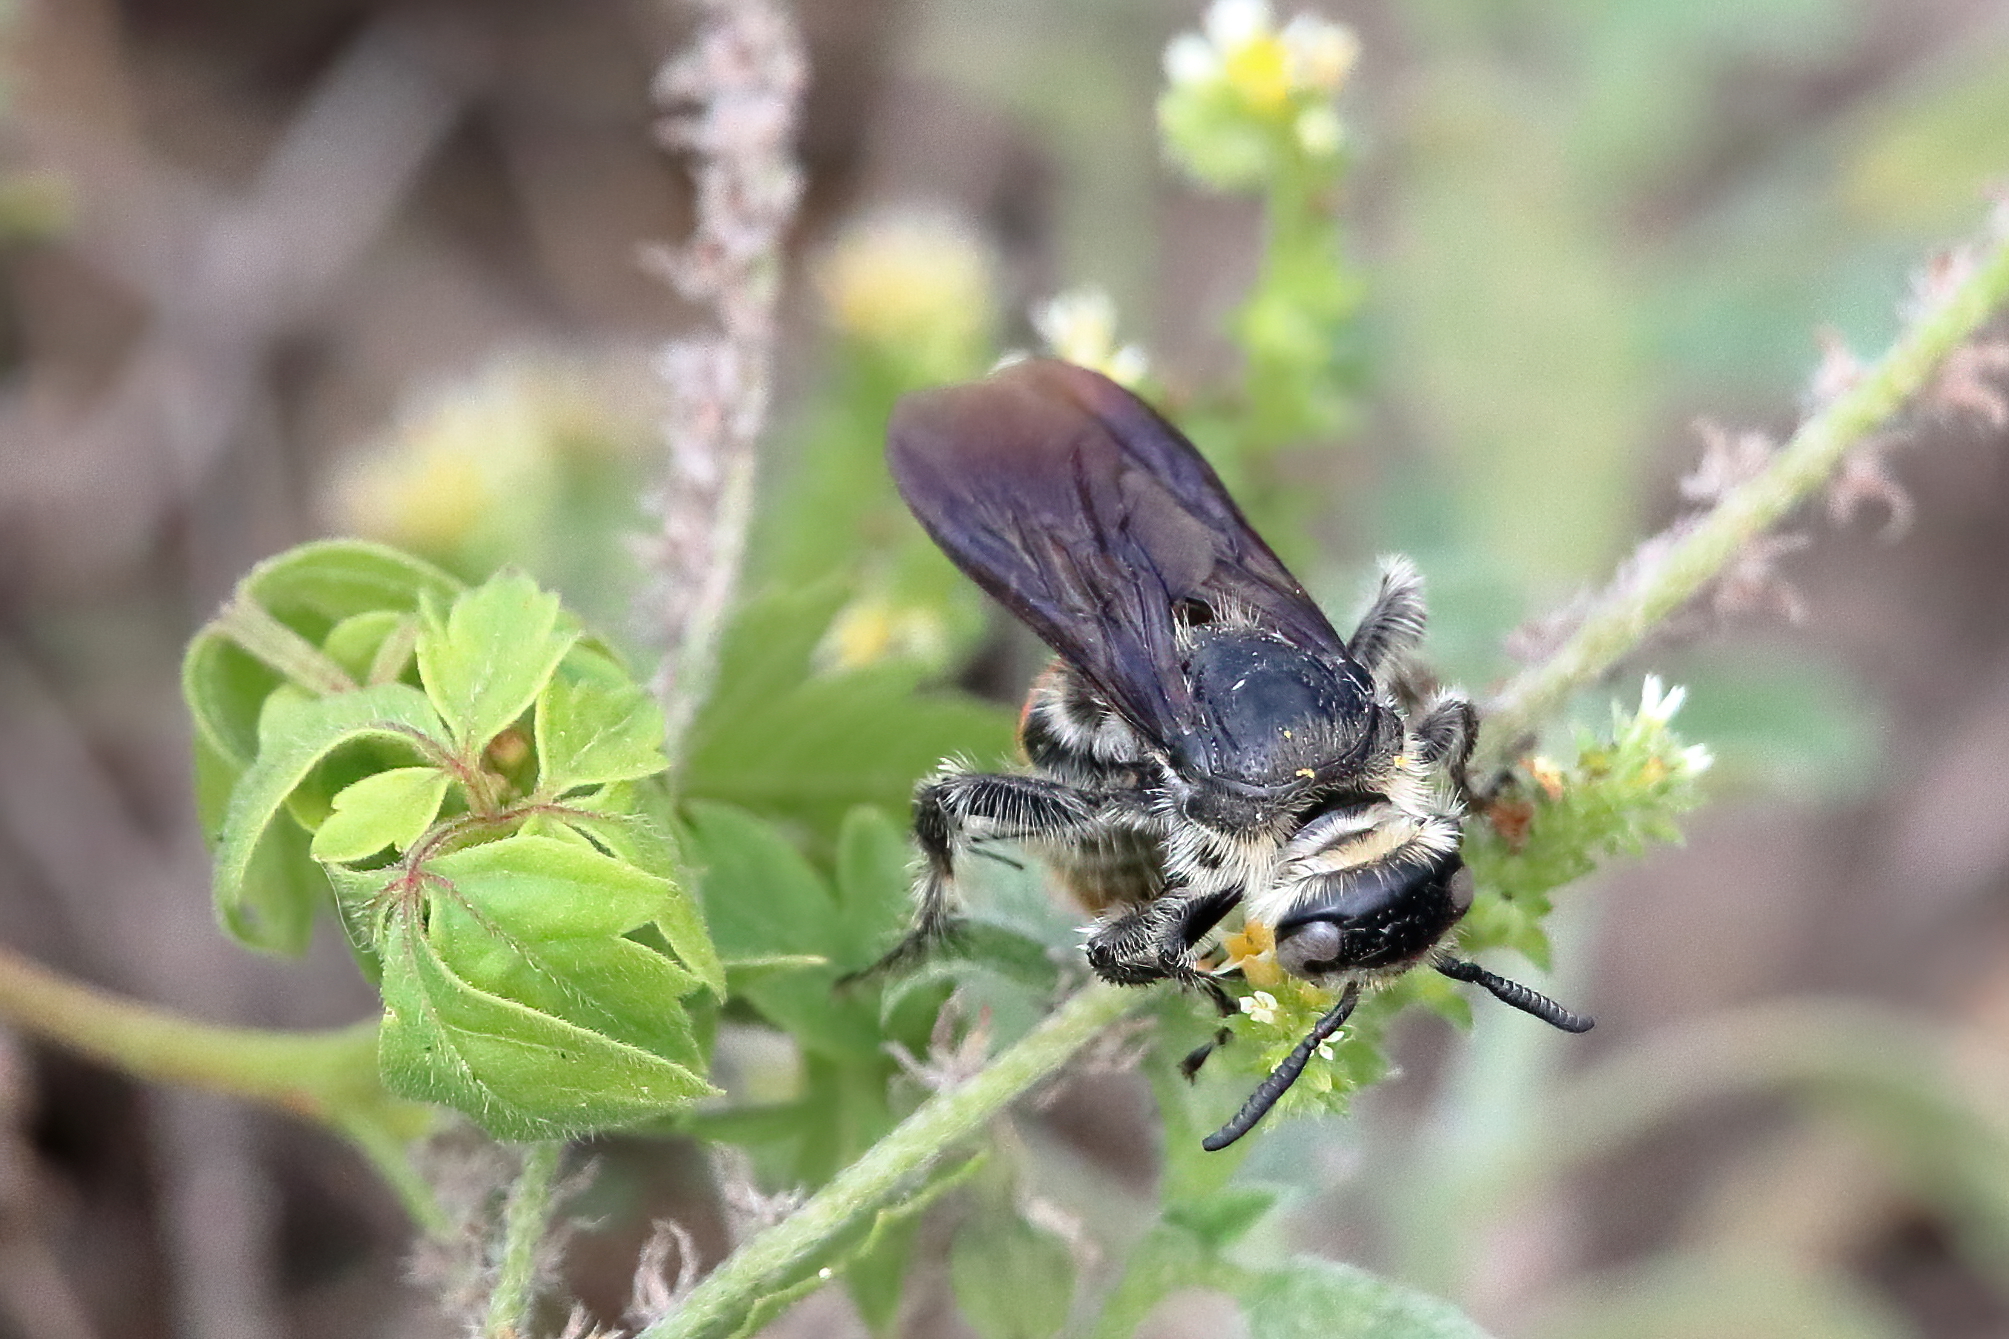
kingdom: Animalia
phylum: Arthropoda
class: Insecta
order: Hymenoptera
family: Scoliidae
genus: Dielis
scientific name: Dielis tolteca
